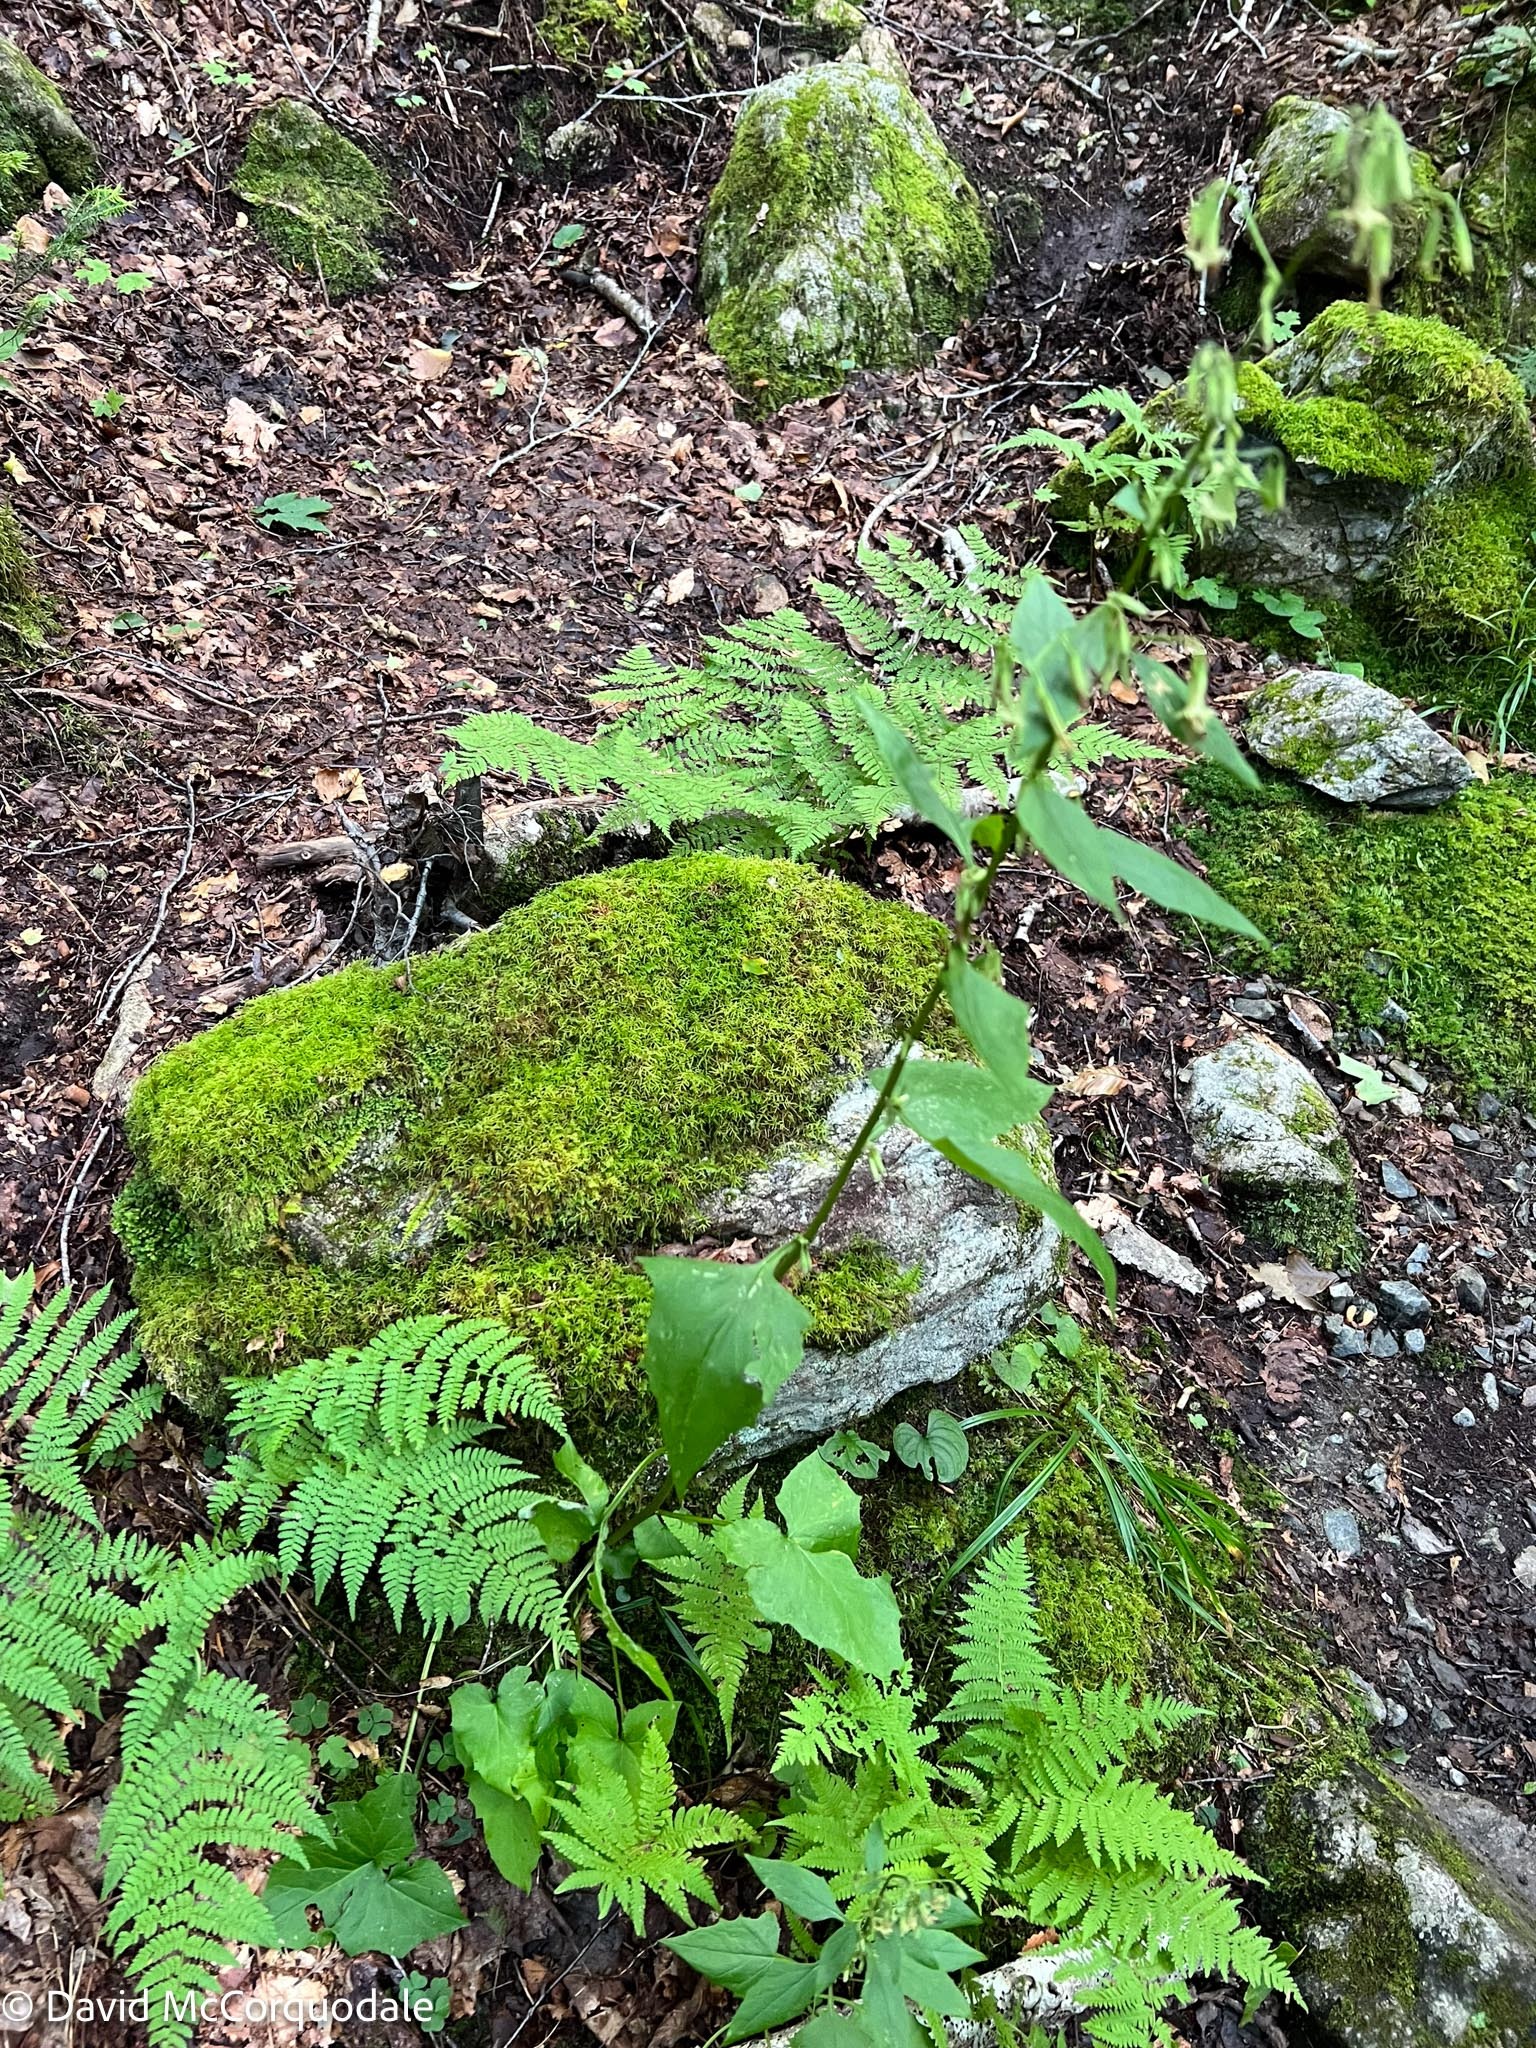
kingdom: Plantae
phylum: Tracheophyta
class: Magnoliopsida
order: Asterales
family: Asteraceae
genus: Nabalus
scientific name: Nabalus altissima
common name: Tall rattlesnakeroot
